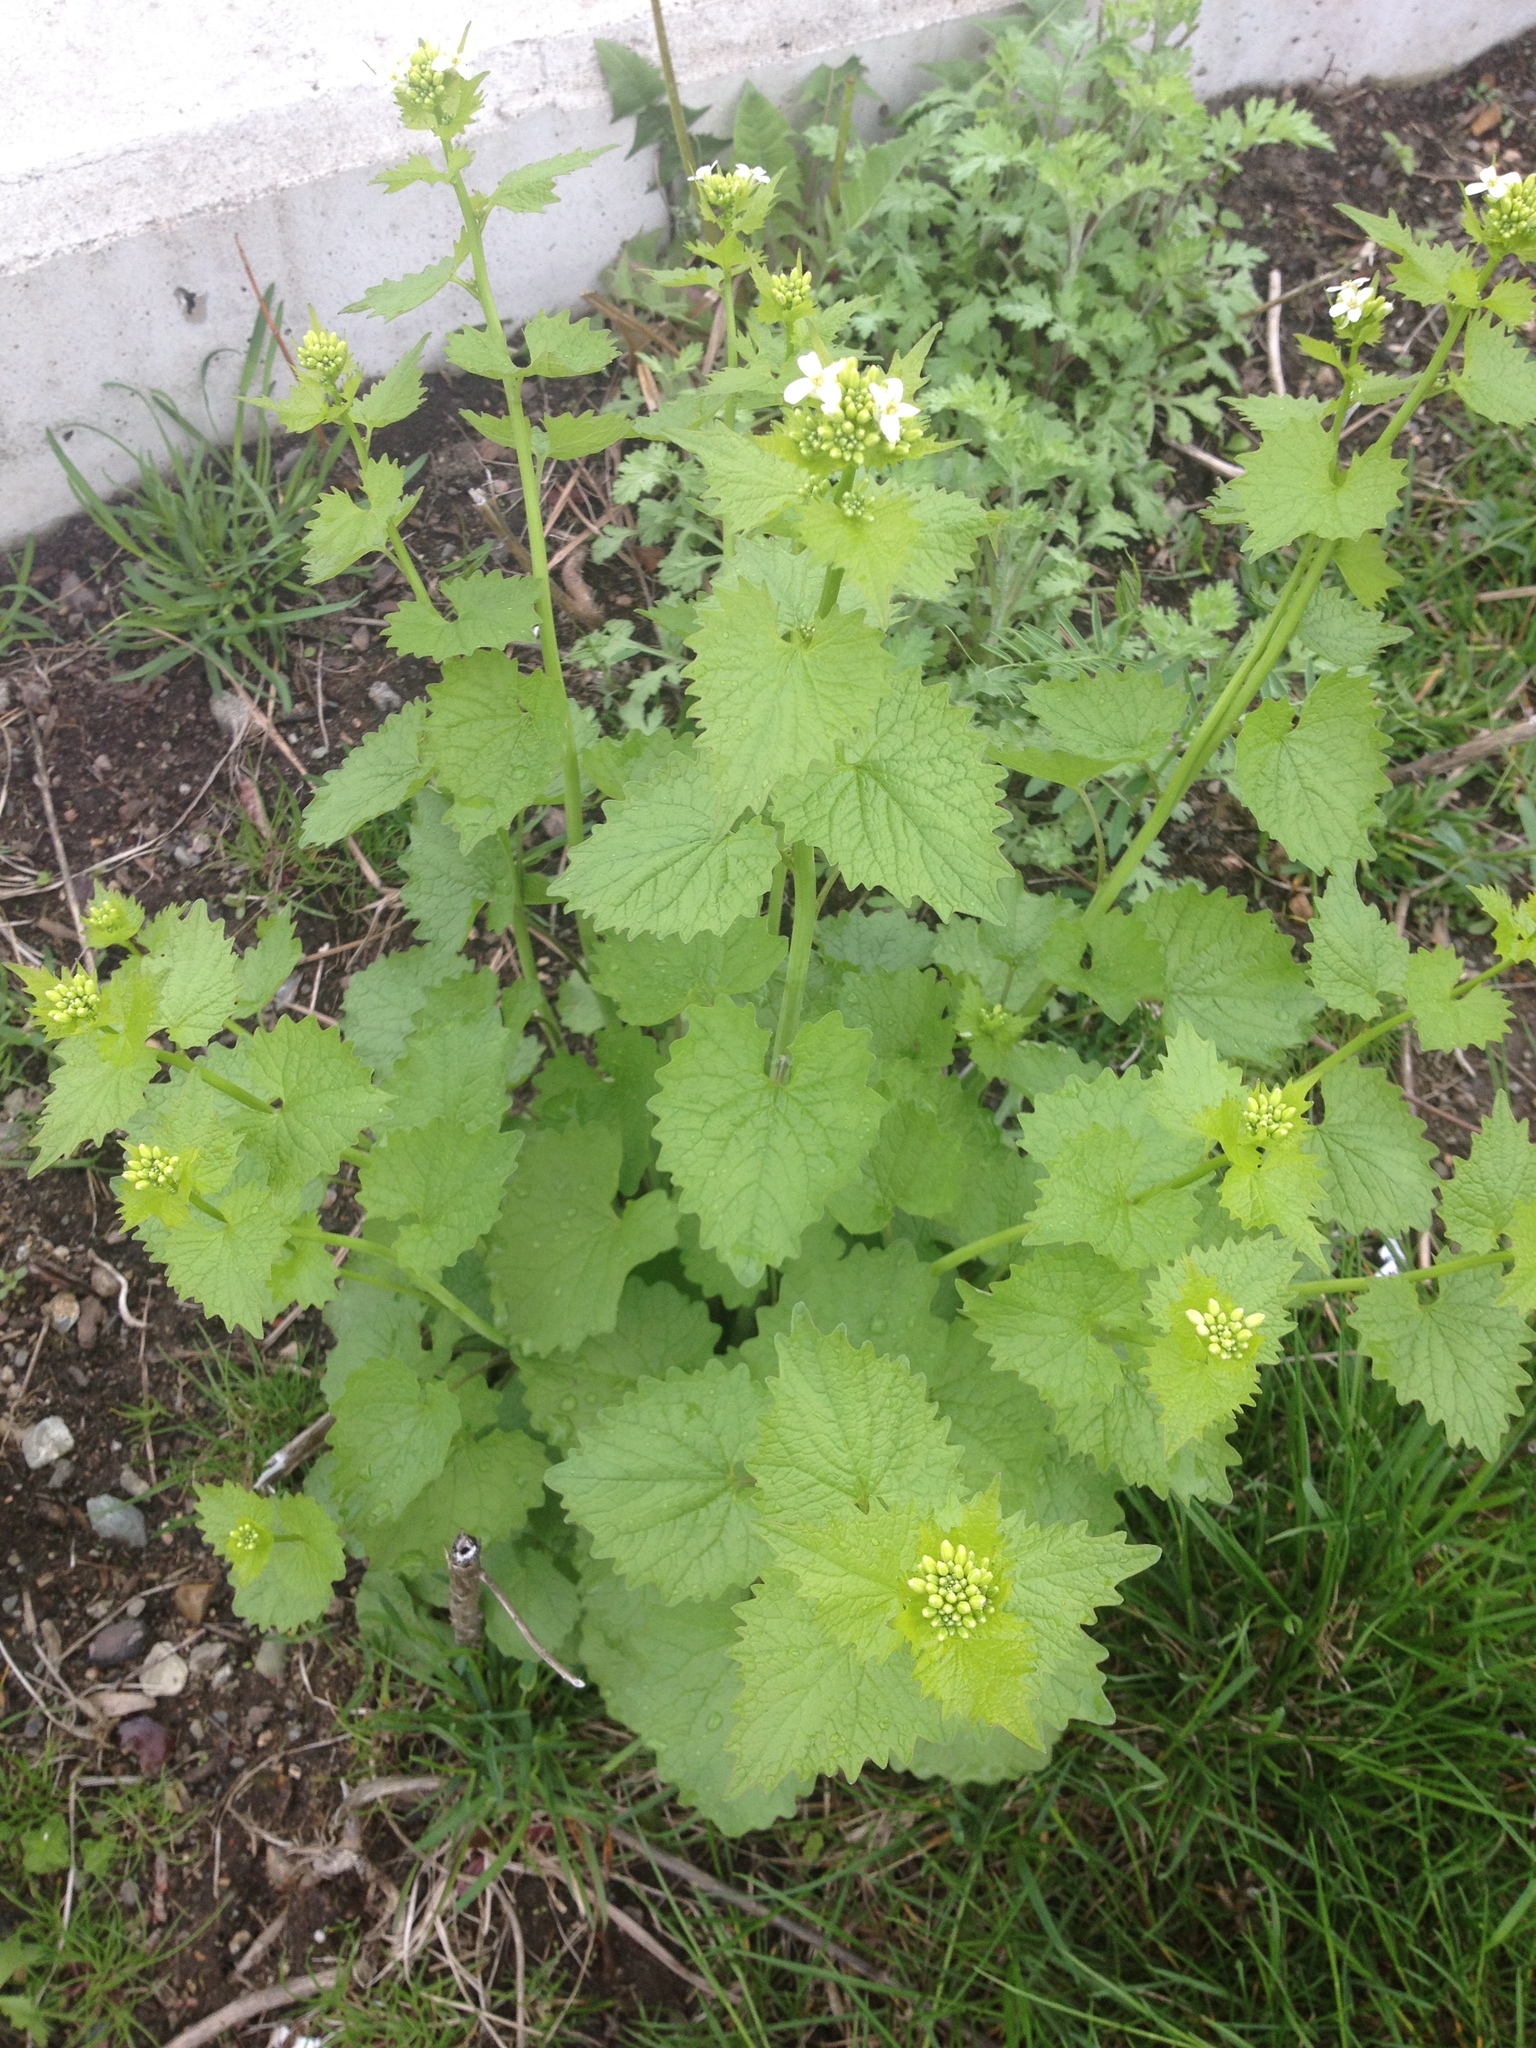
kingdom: Plantae
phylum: Tracheophyta
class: Magnoliopsida
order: Brassicales
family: Brassicaceae
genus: Alliaria
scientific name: Alliaria petiolata
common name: Garlic mustard
